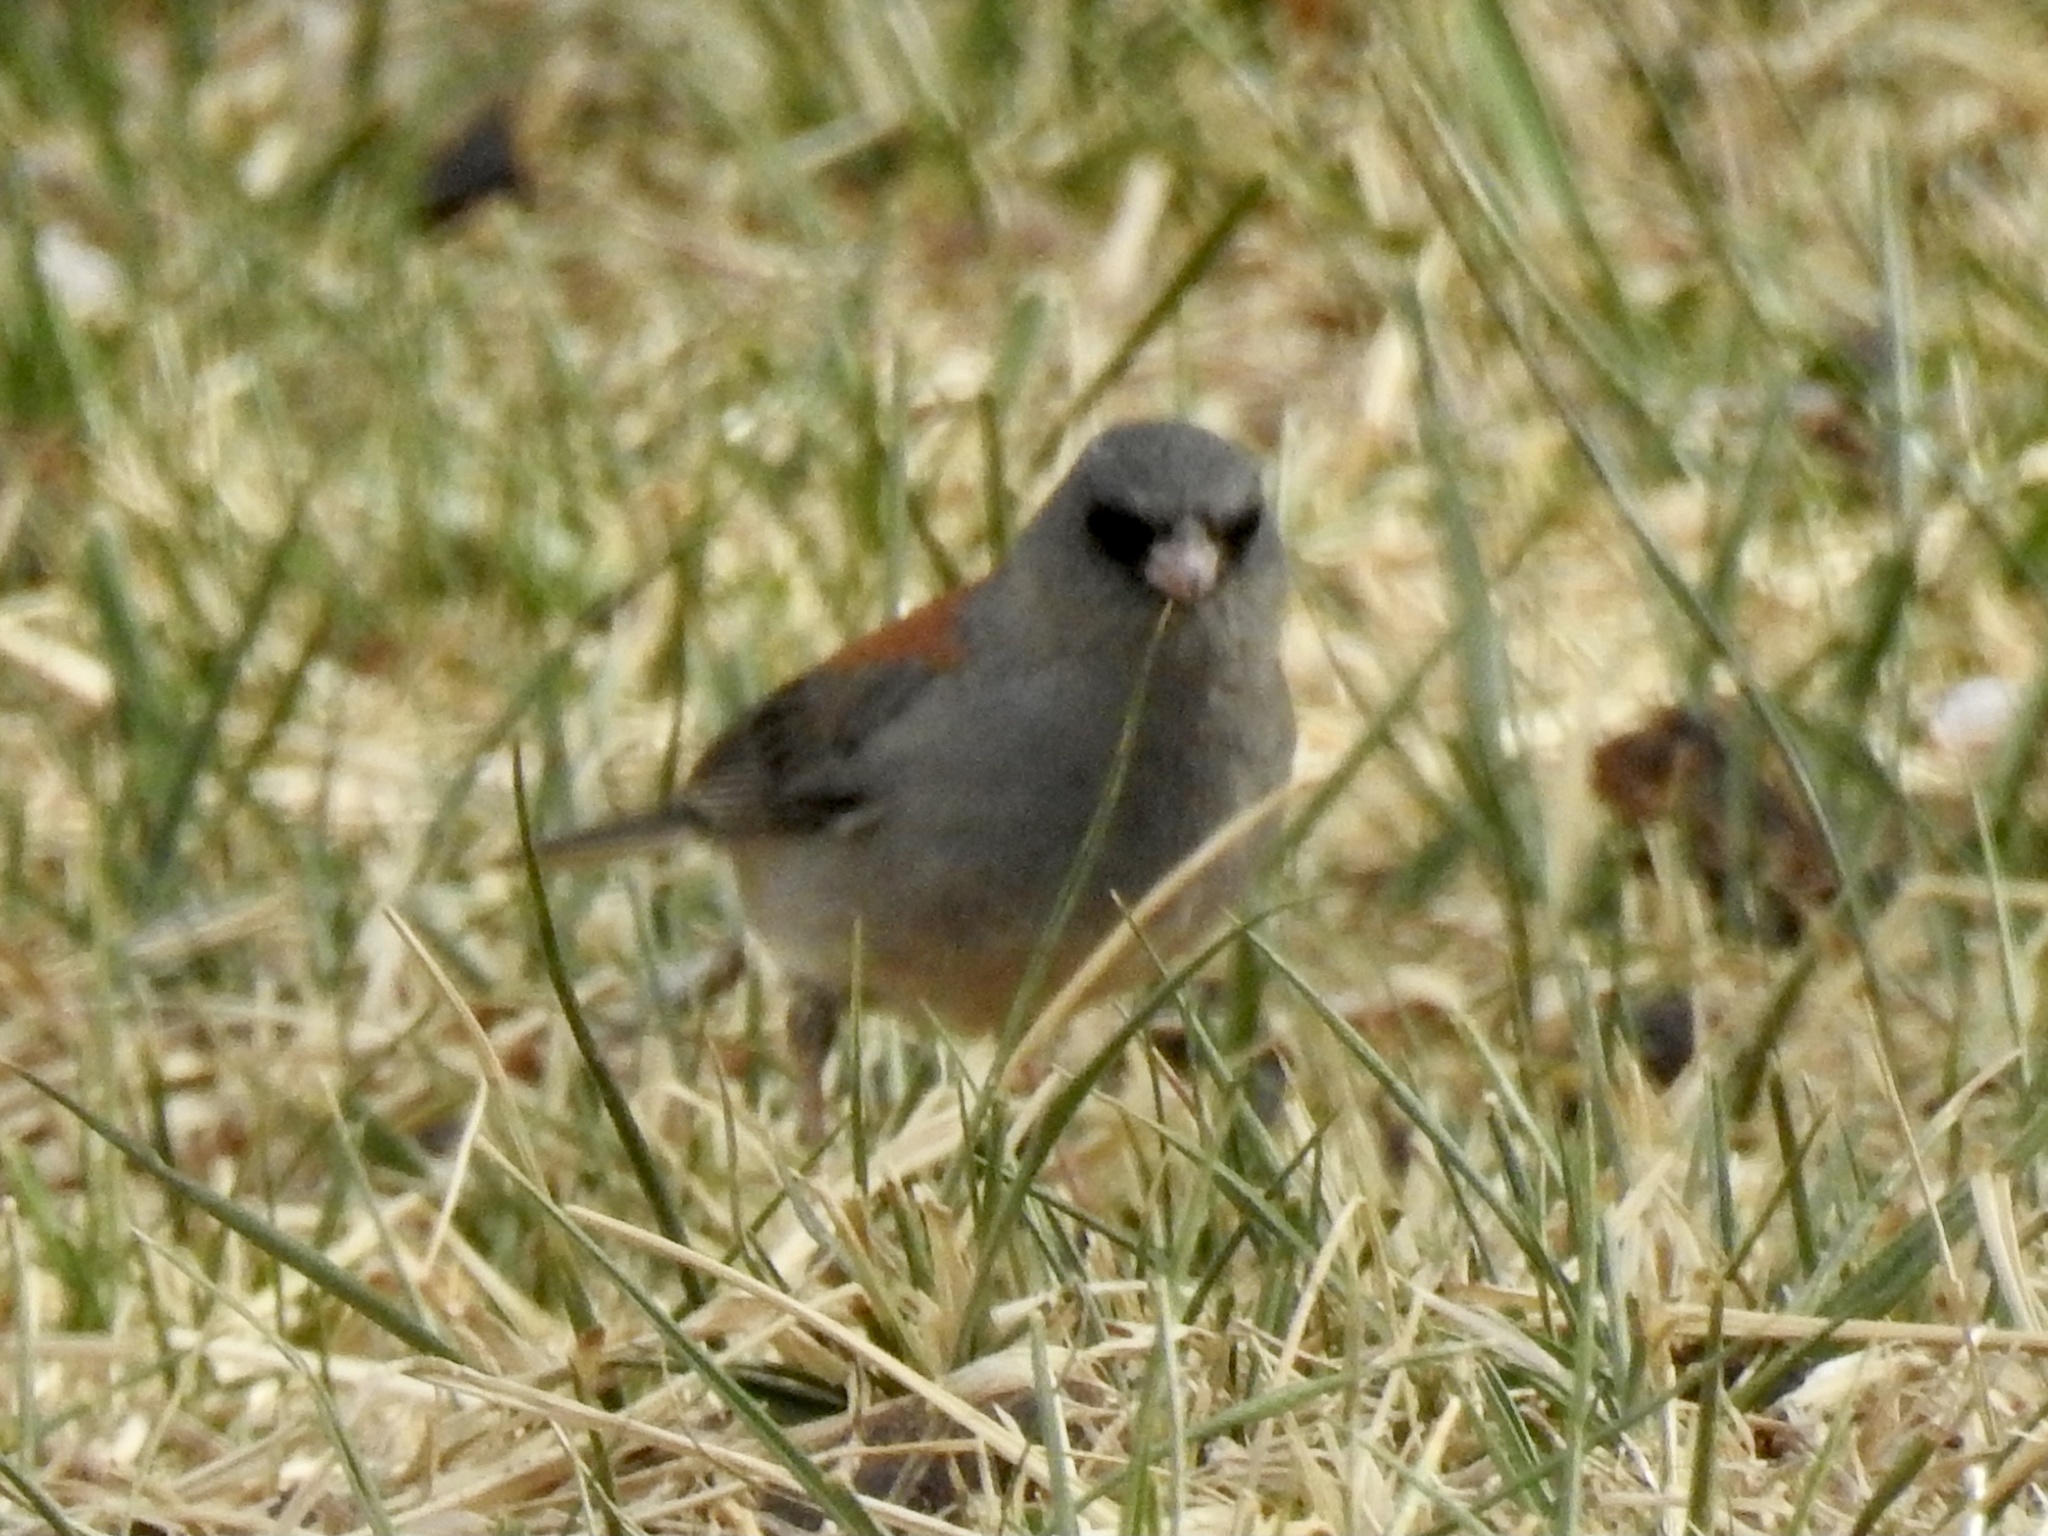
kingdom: Animalia
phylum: Chordata
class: Aves
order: Passeriformes
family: Passerellidae
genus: Junco
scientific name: Junco hyemalis
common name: Dark-eyed junco
